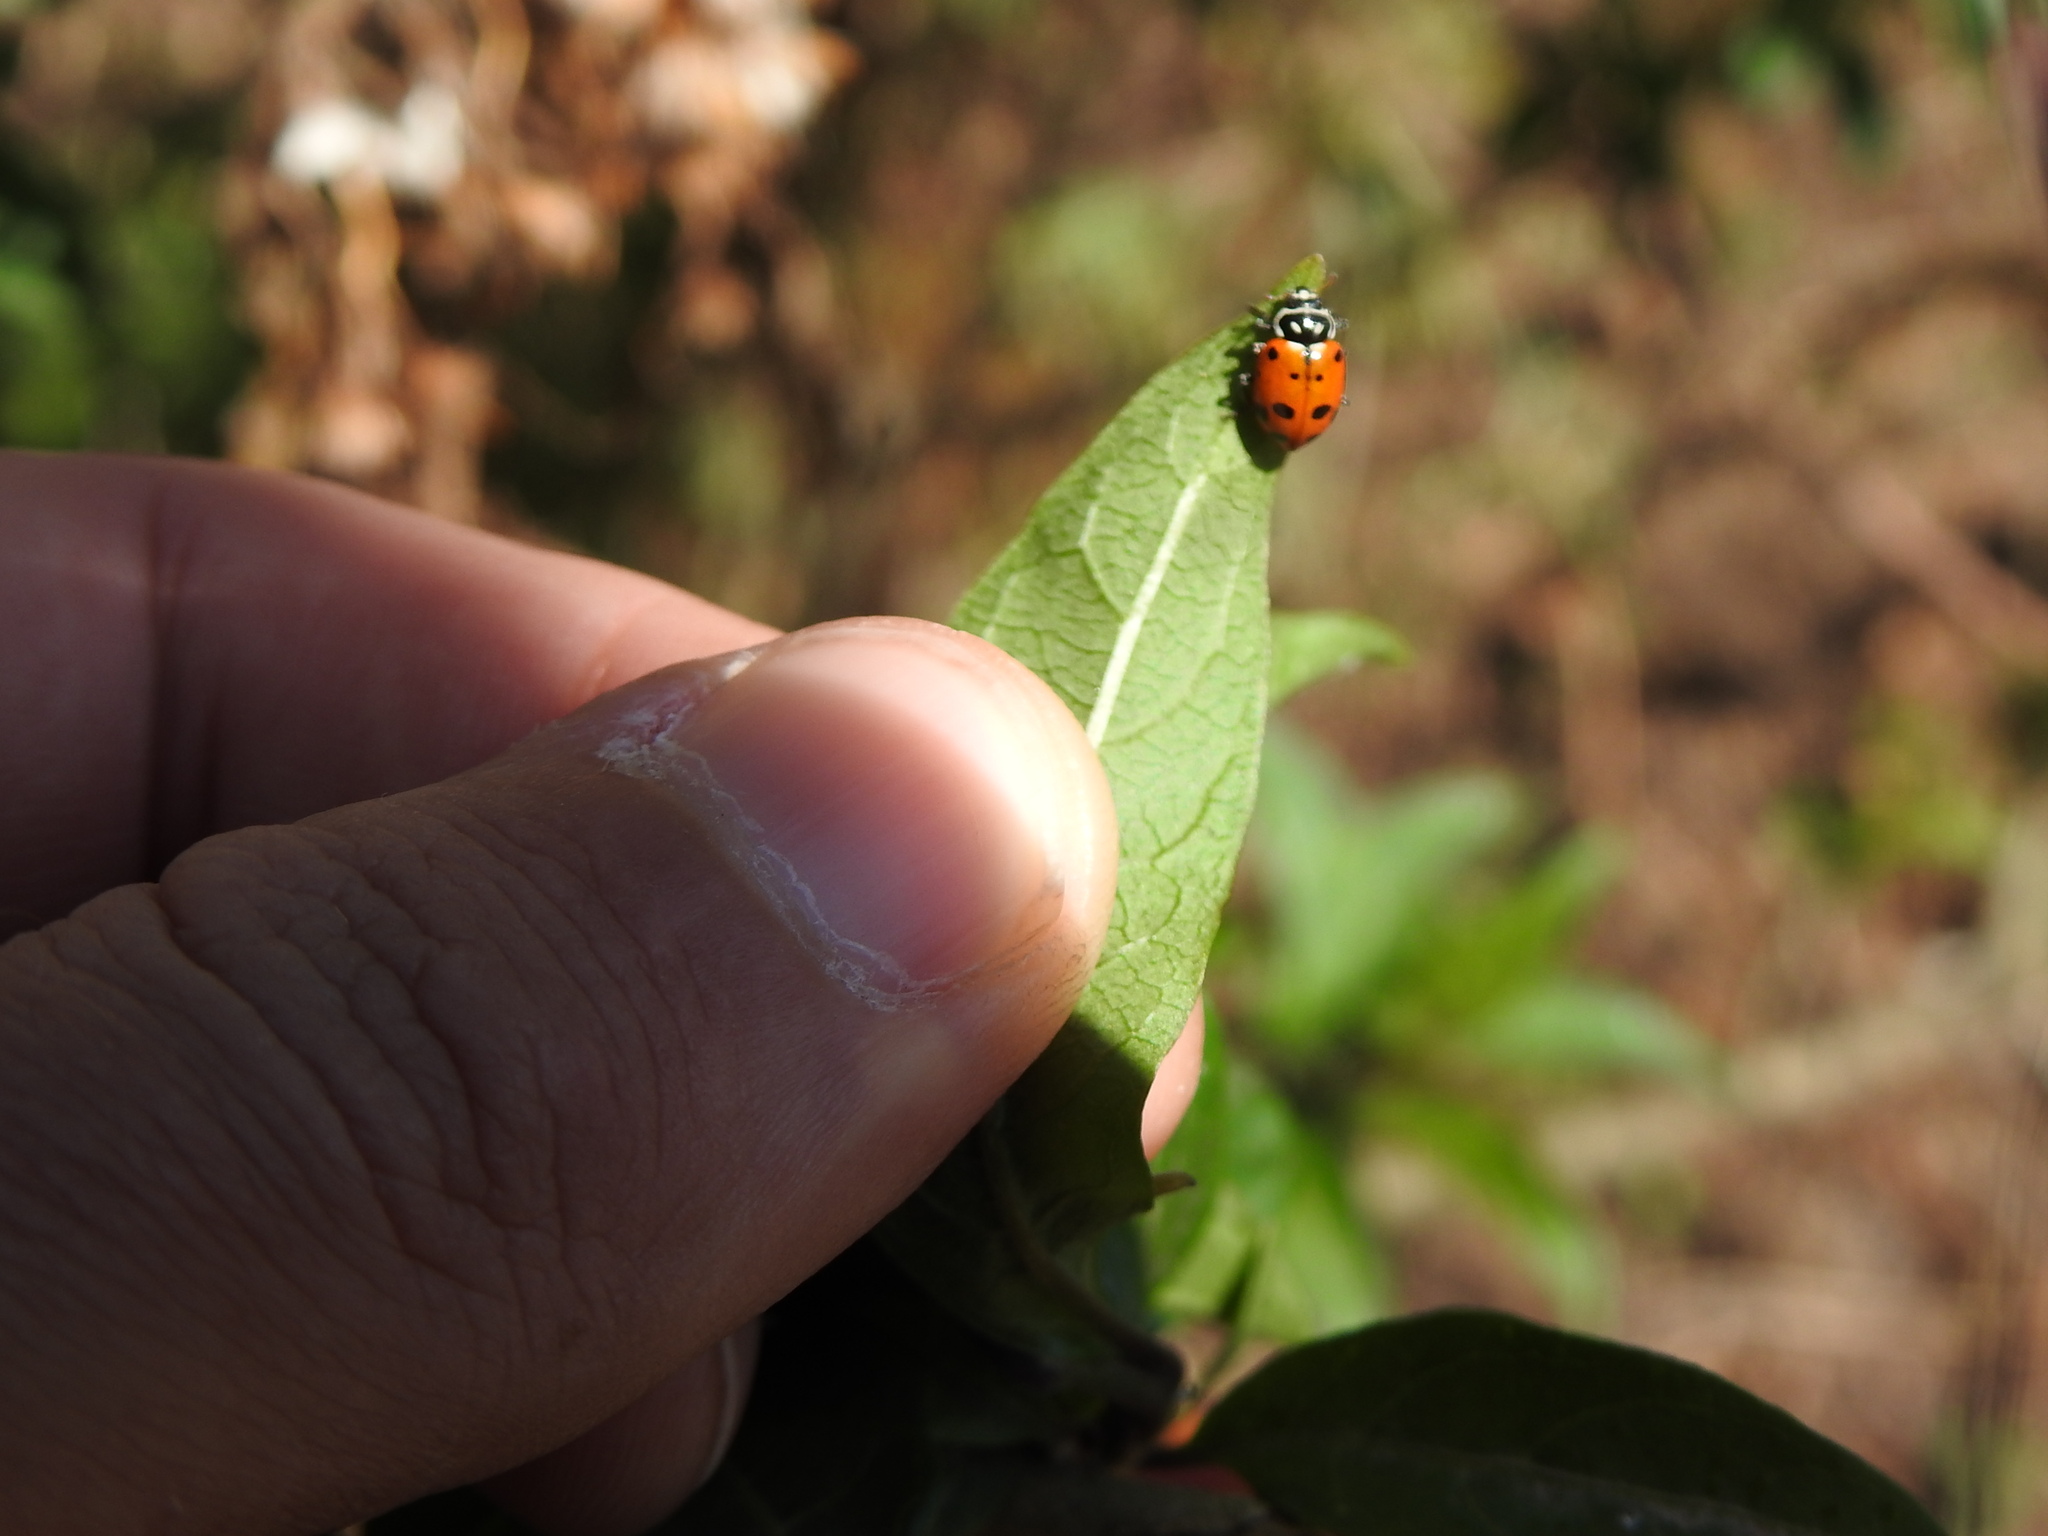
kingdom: Animalia
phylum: Arthropoda
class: Insecta
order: Coleoptera
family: Coccinellidae
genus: Hippodamia
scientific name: Hippodamia convergens
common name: Convergent lady beetle
